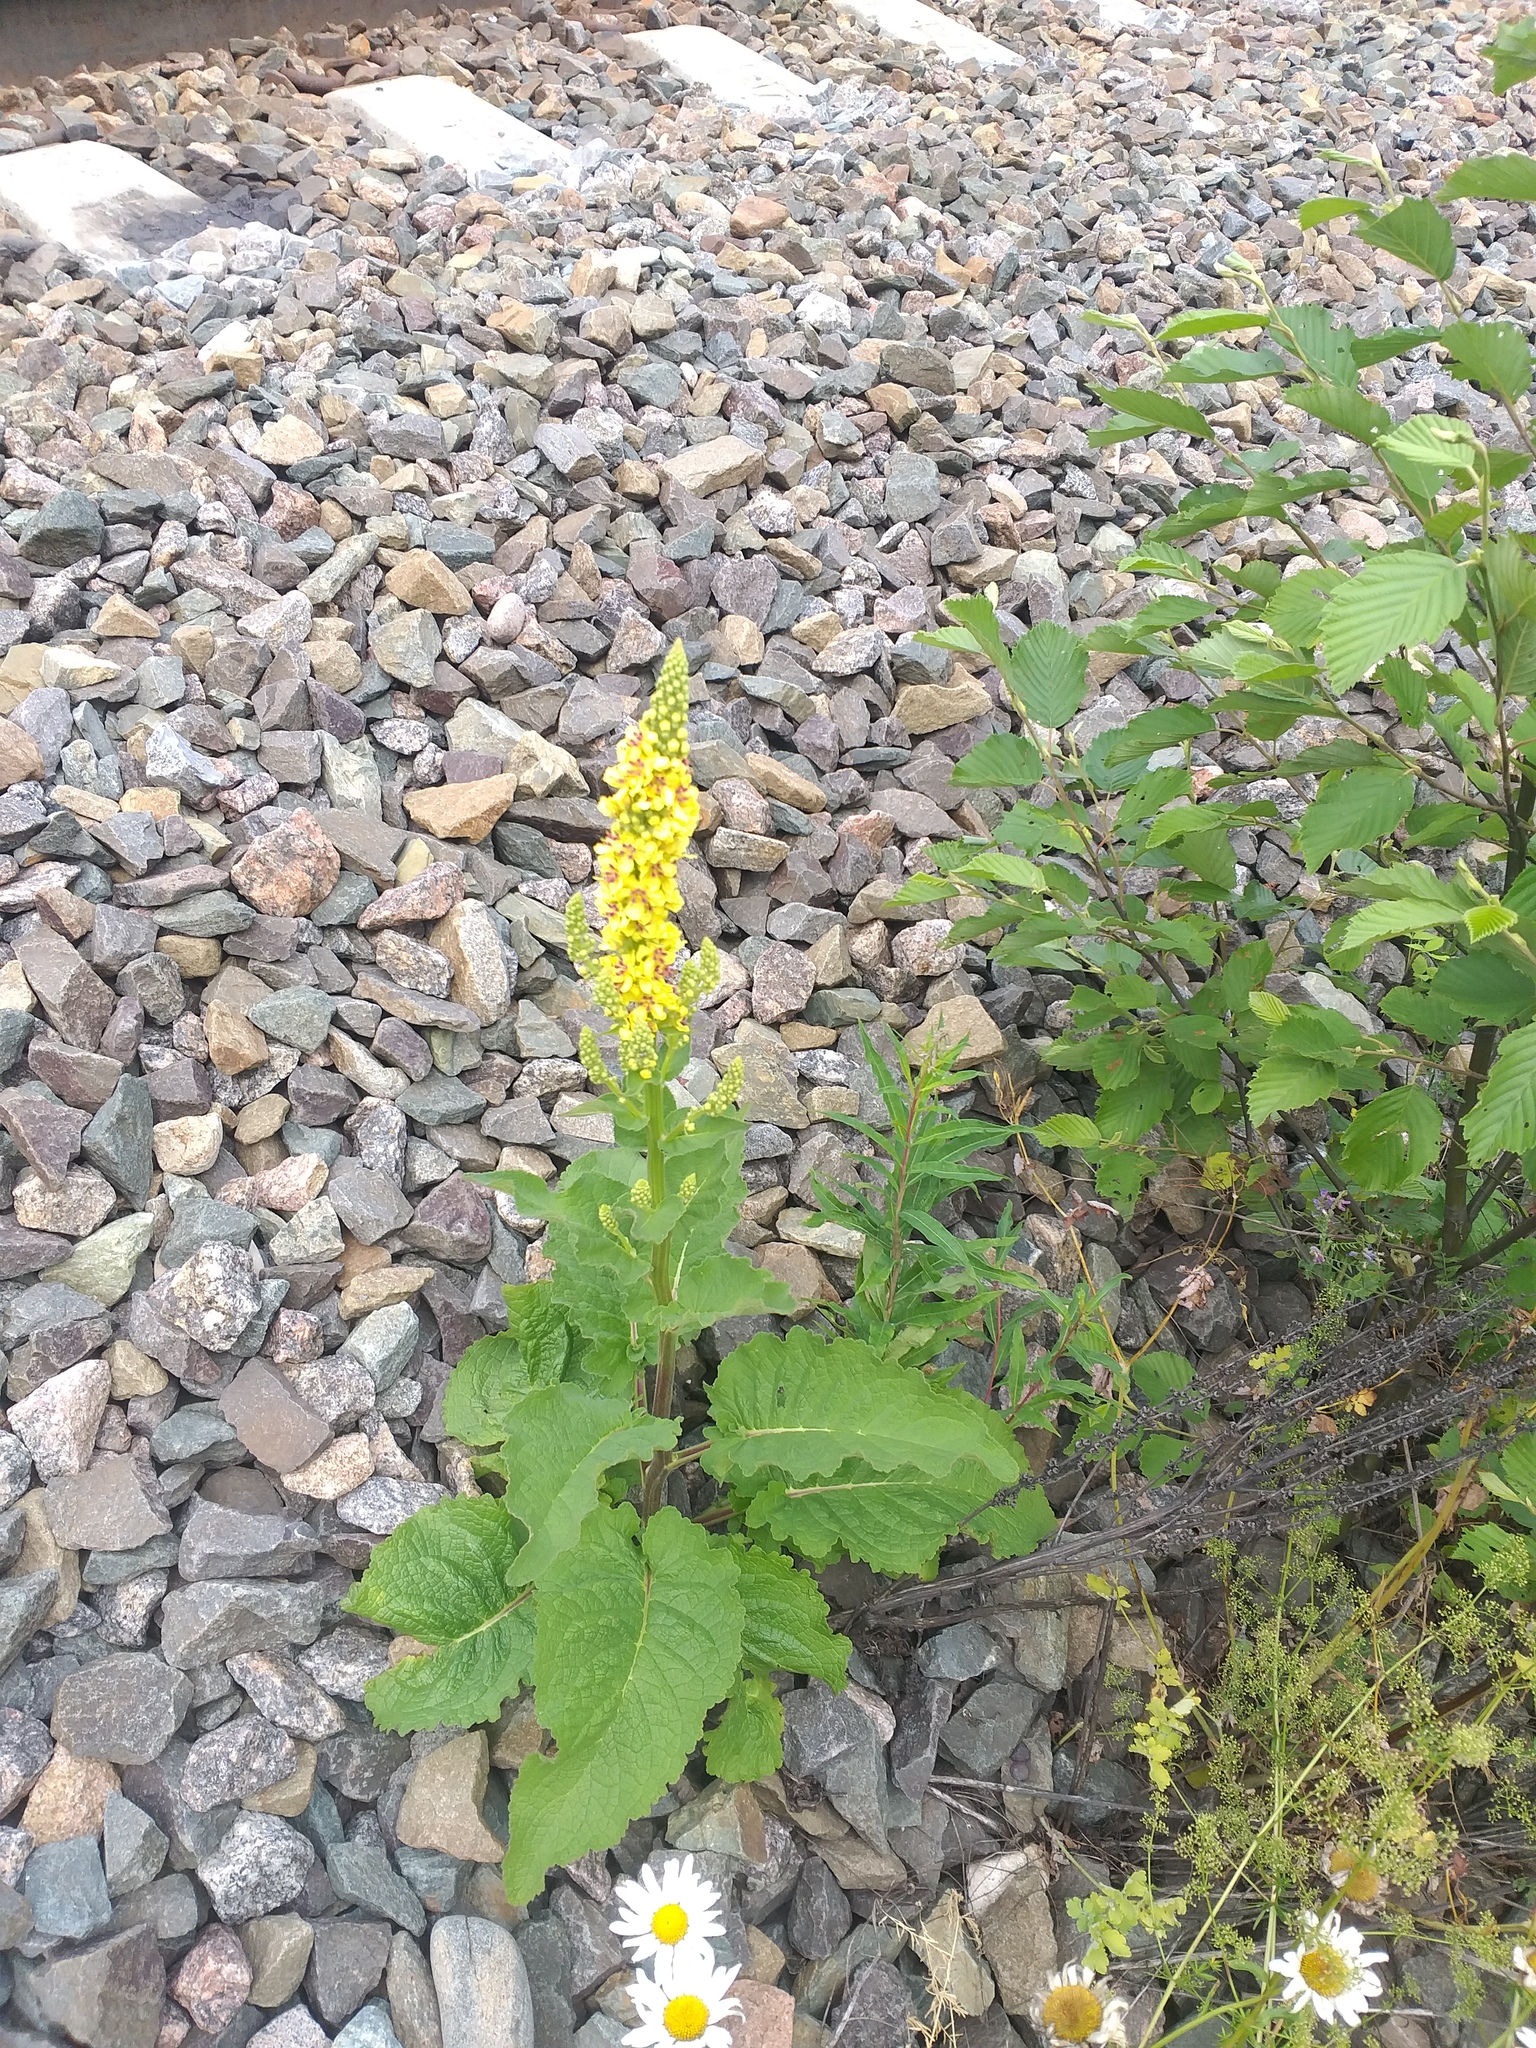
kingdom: Plantae
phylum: Tracheophyta
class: Magnoliopsida
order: Lamiales
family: Scrophulariaceae
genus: Verbascum
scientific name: Verbascum nigrum
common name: Dark mullein
